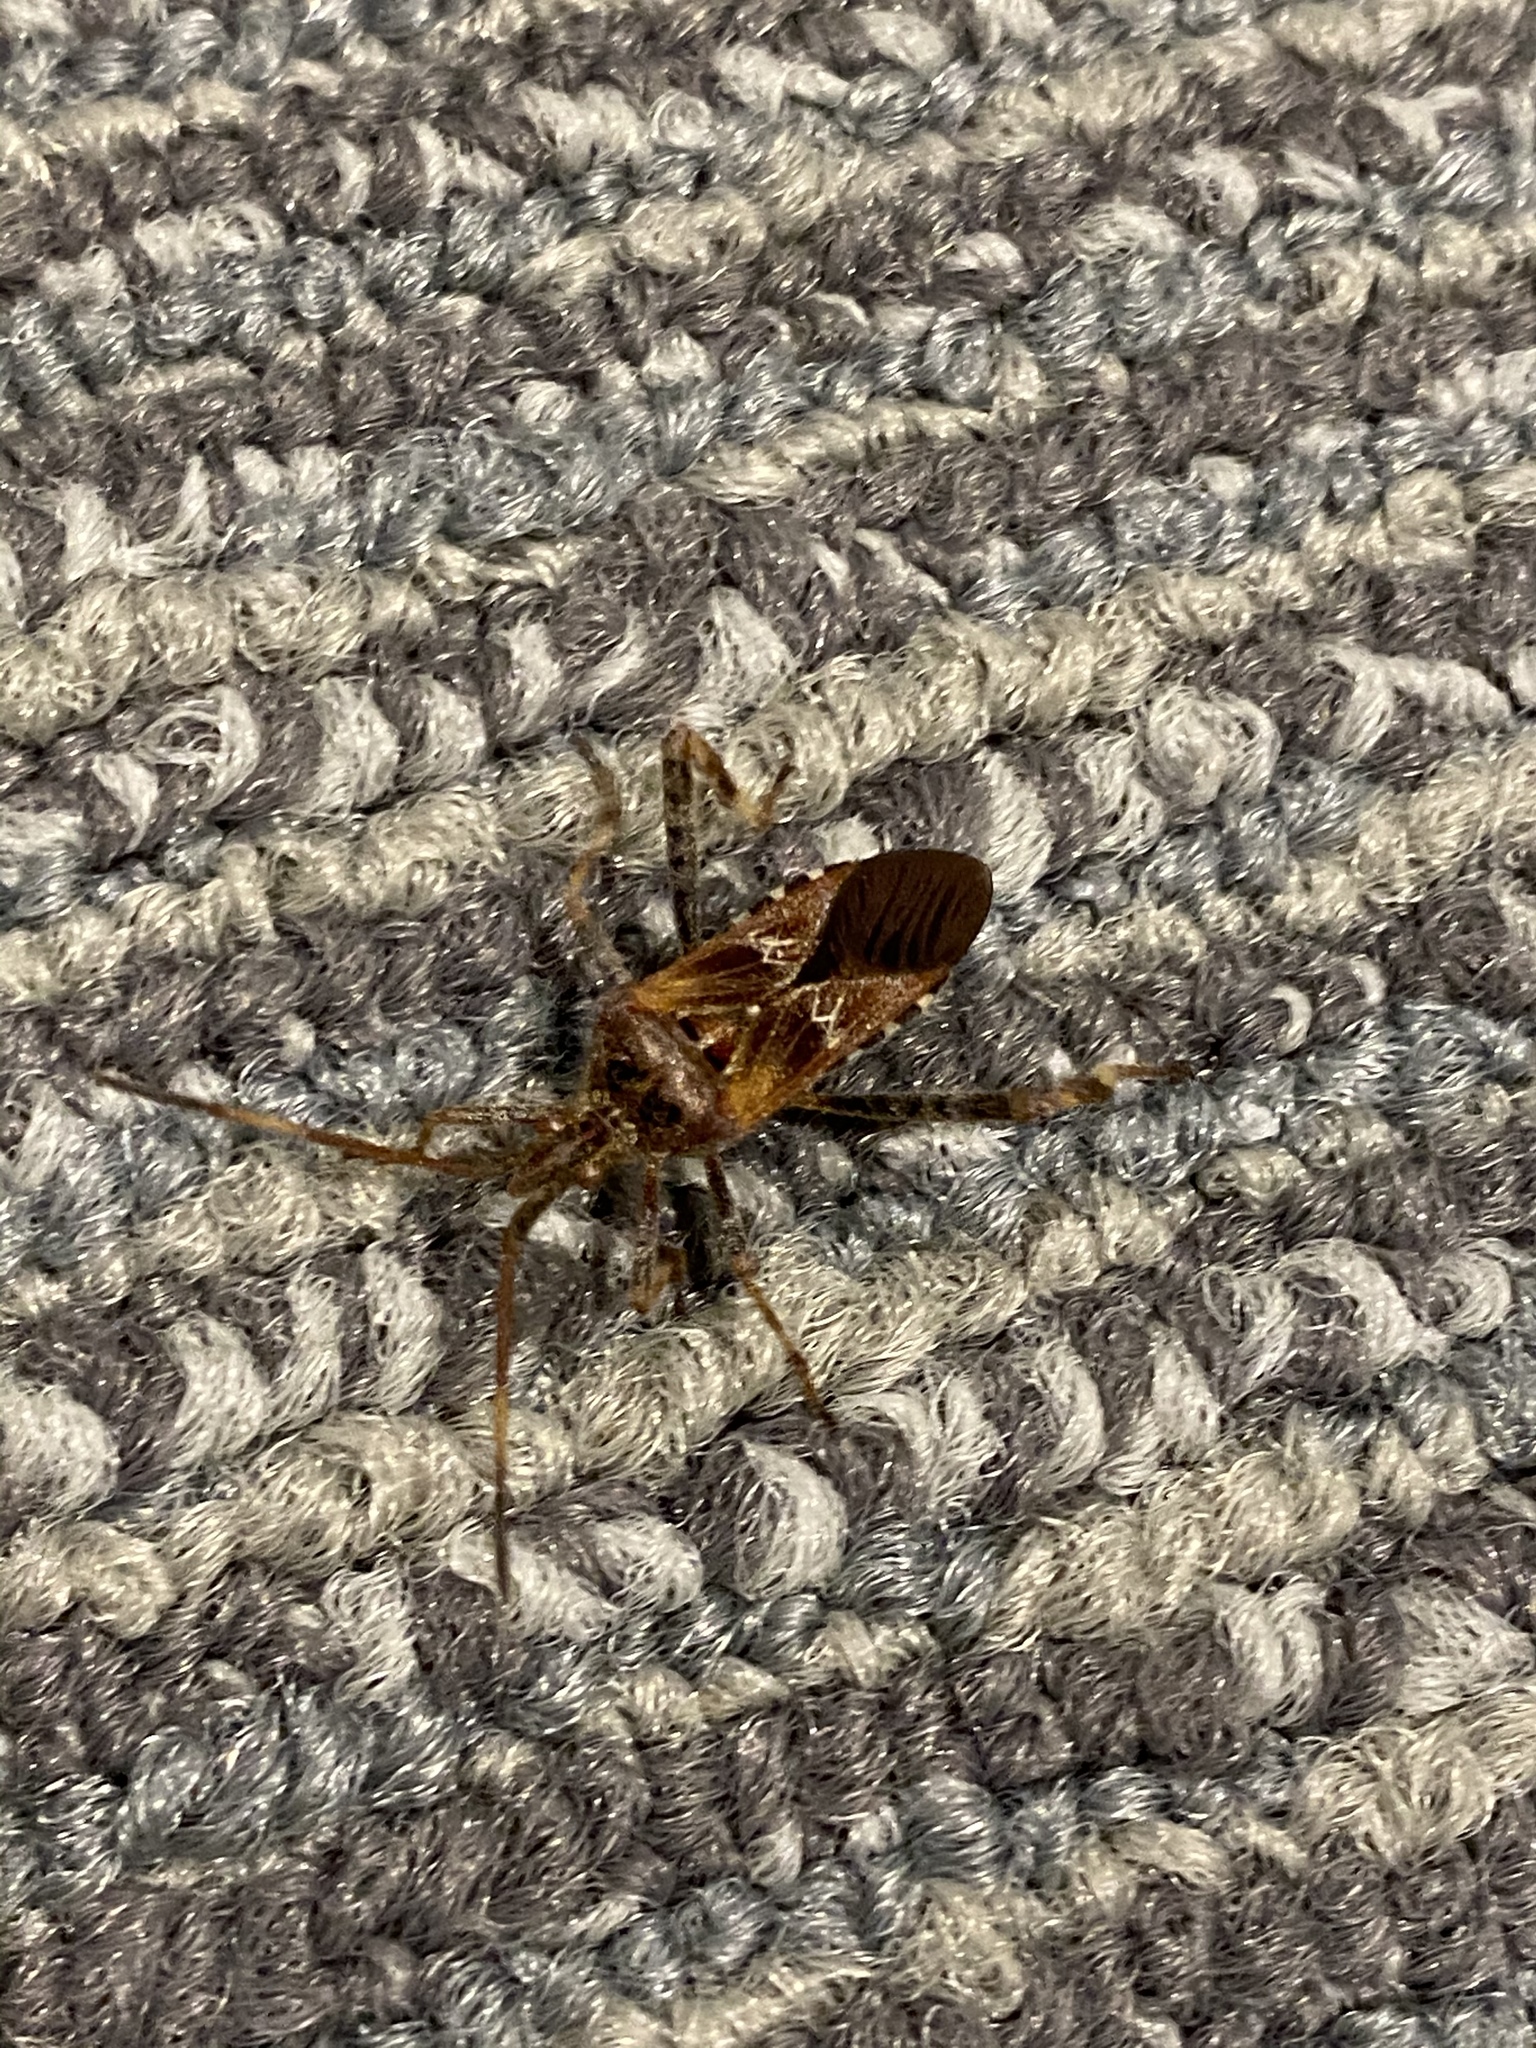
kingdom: Animalia
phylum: Arthropoda
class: Insecta
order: Hemiptera
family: Coreidae
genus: Leptoglossus
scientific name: Leptoglossus occidentalis
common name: Western conifer-seed bug
